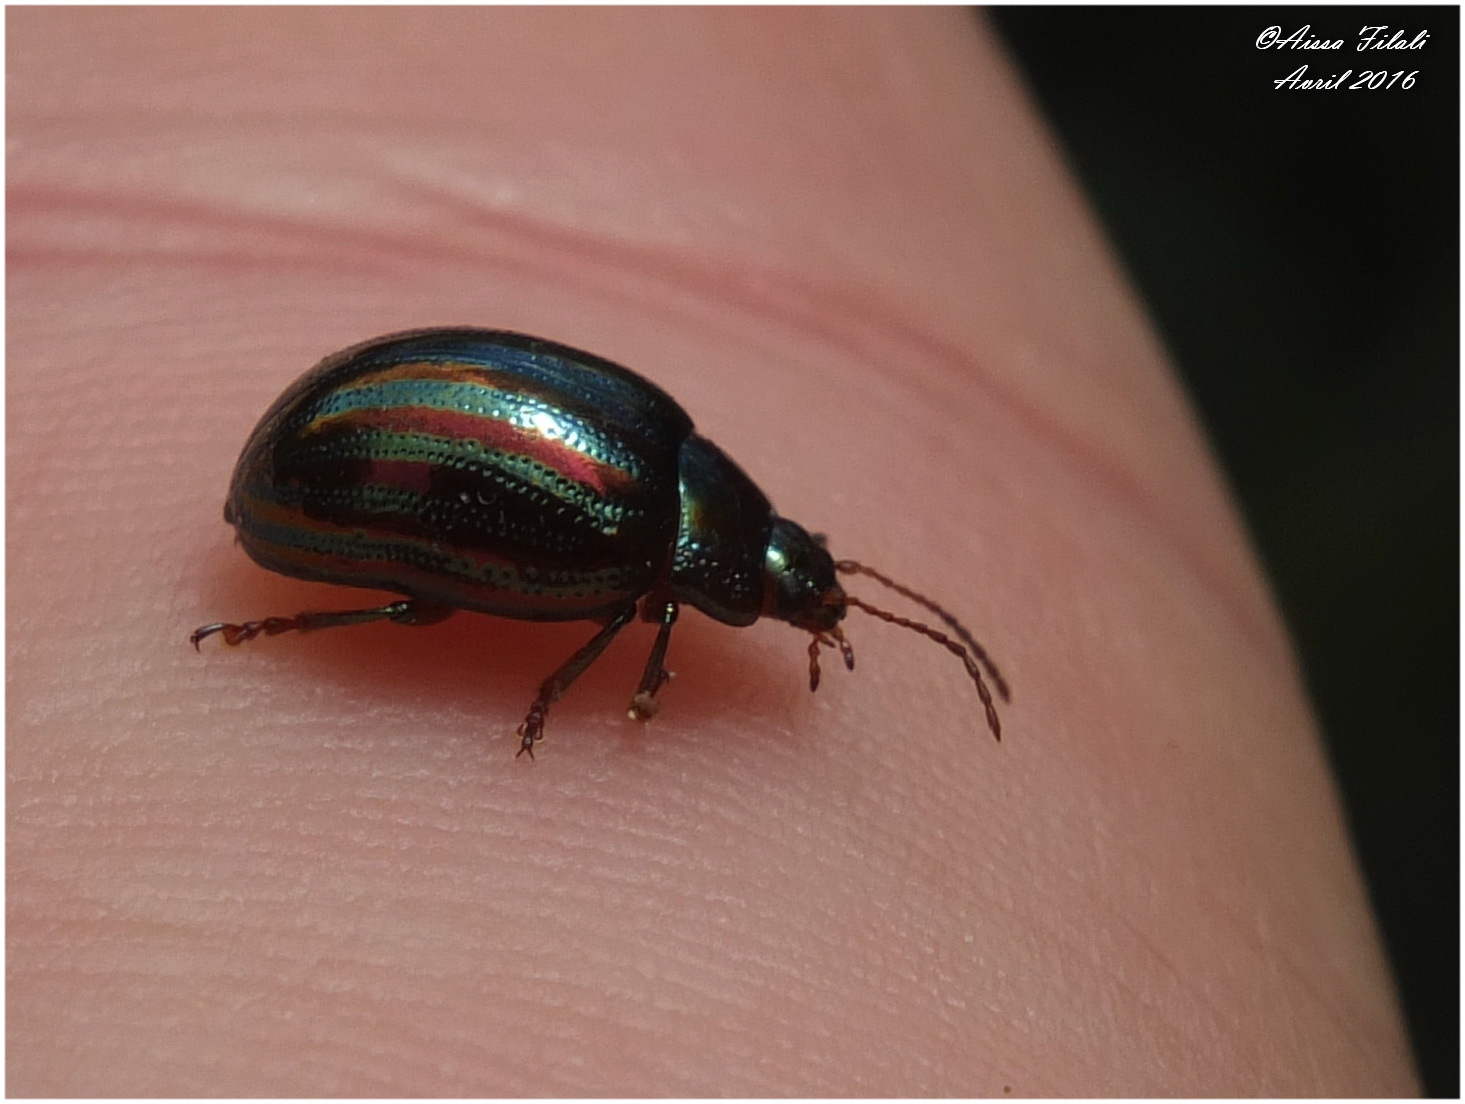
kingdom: Animalia
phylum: Arthropoda
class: Insecta
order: Coleoptera
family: Chrysomelidae
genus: Chrysolina
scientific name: Chrysolina americana
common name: Rosemary beetle
